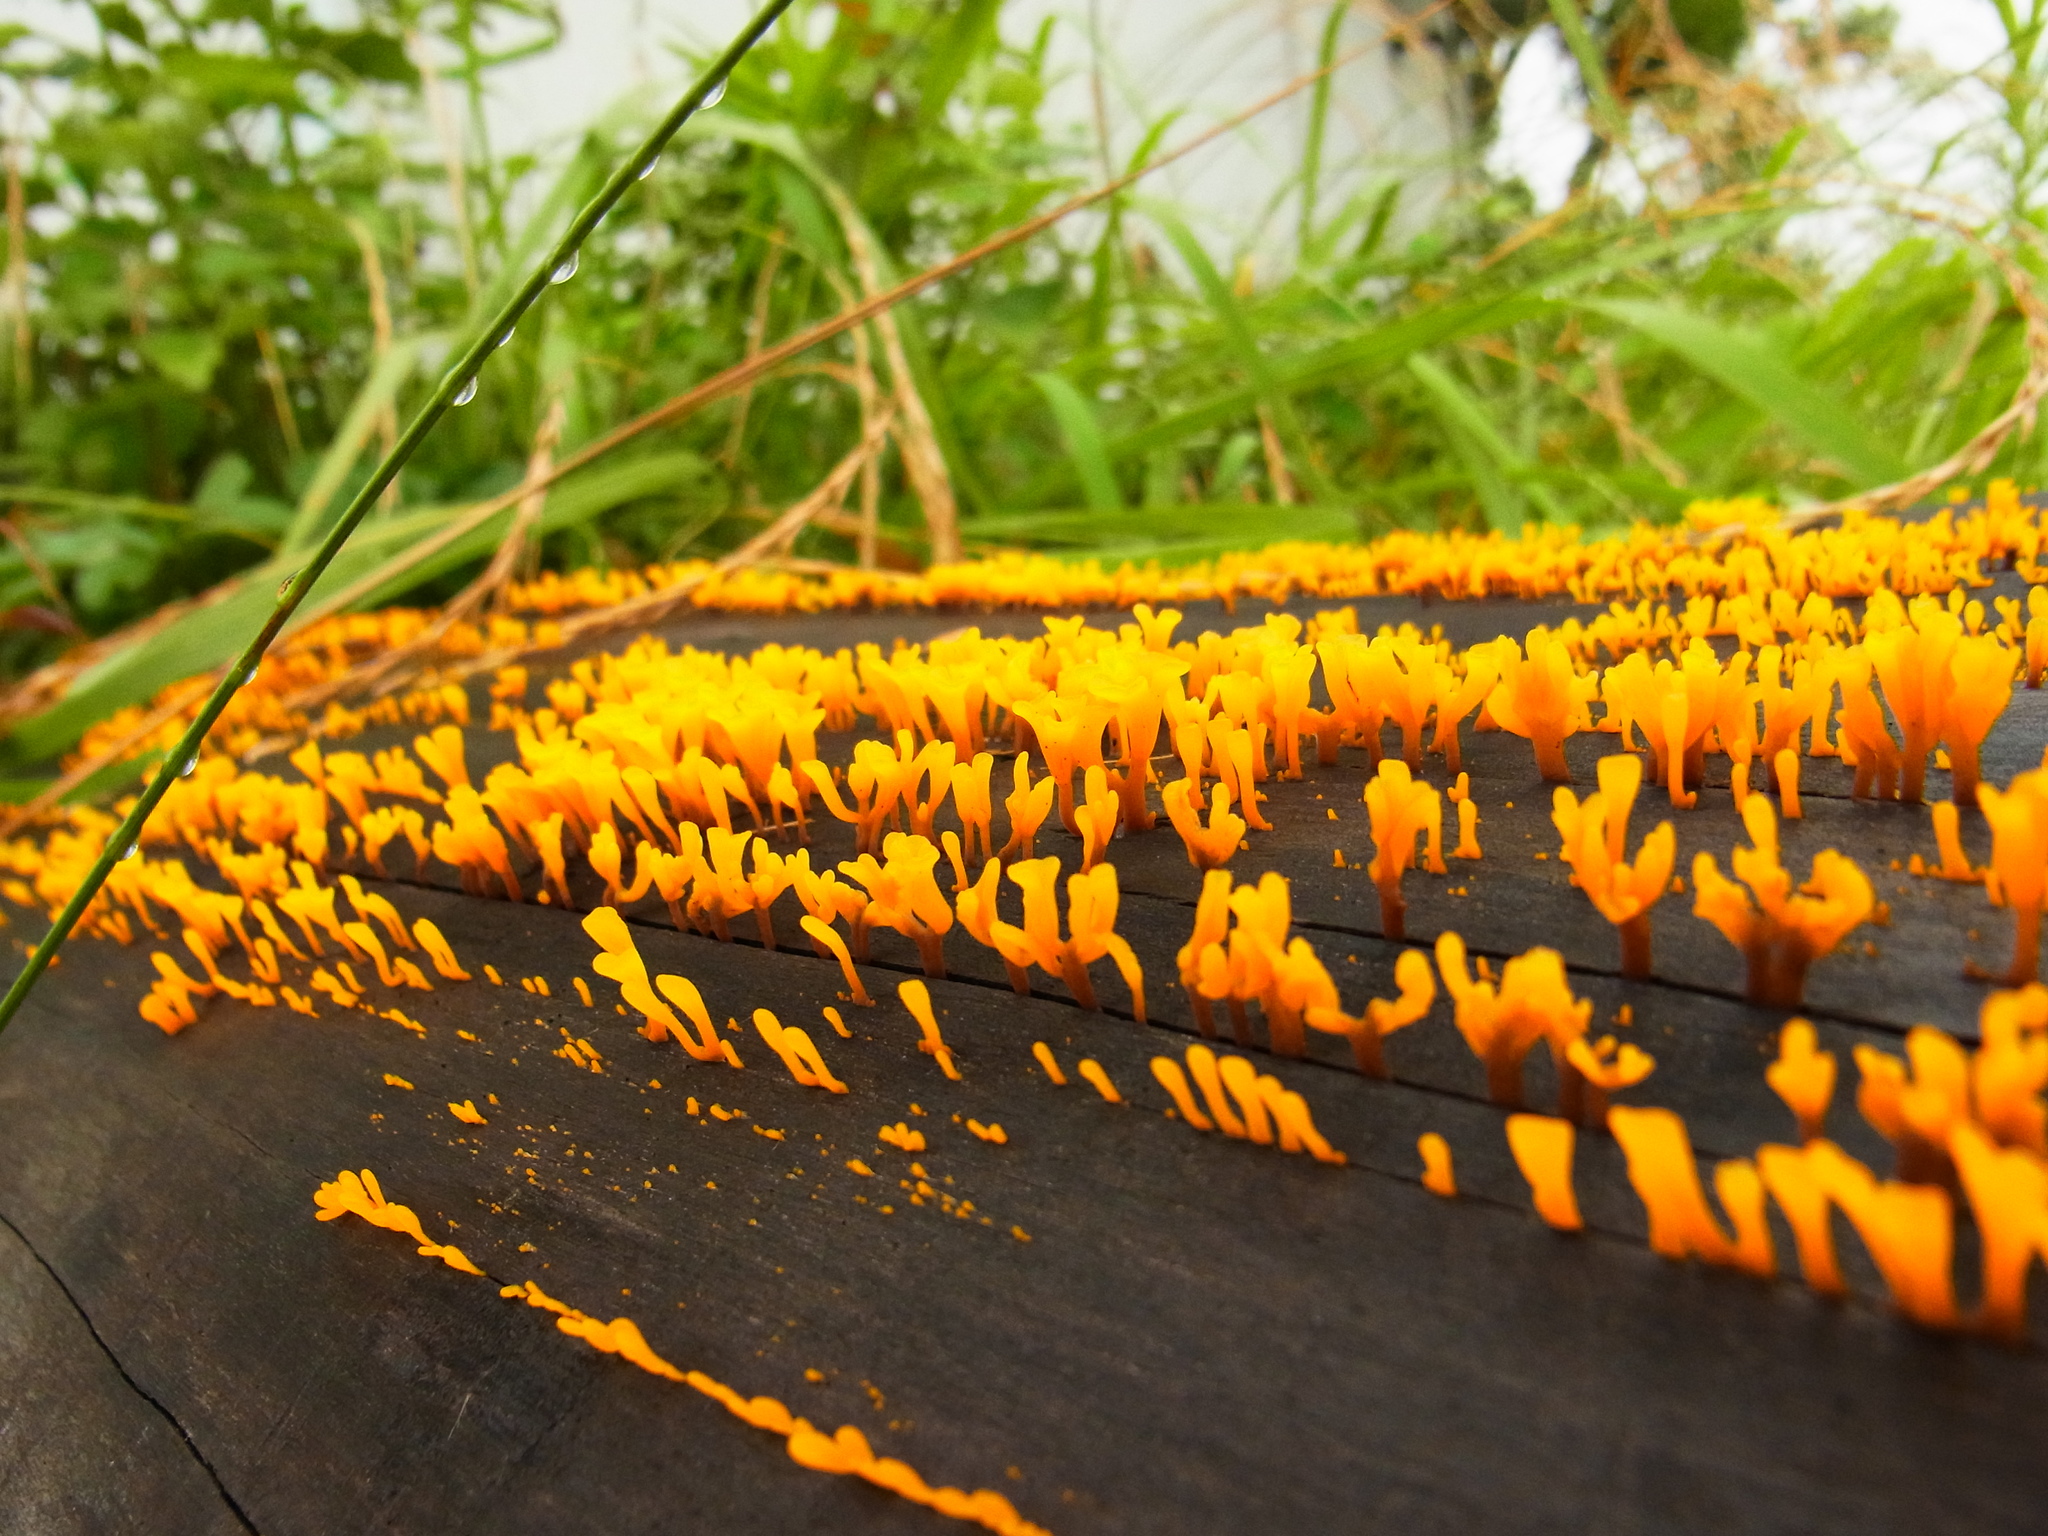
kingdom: Fungi
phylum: Basidiomycota
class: Dacrymycetes
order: Dacrymycetales
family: Dacrymycetaceae
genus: Dacrymyces
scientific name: Dacrymyces spathularius
